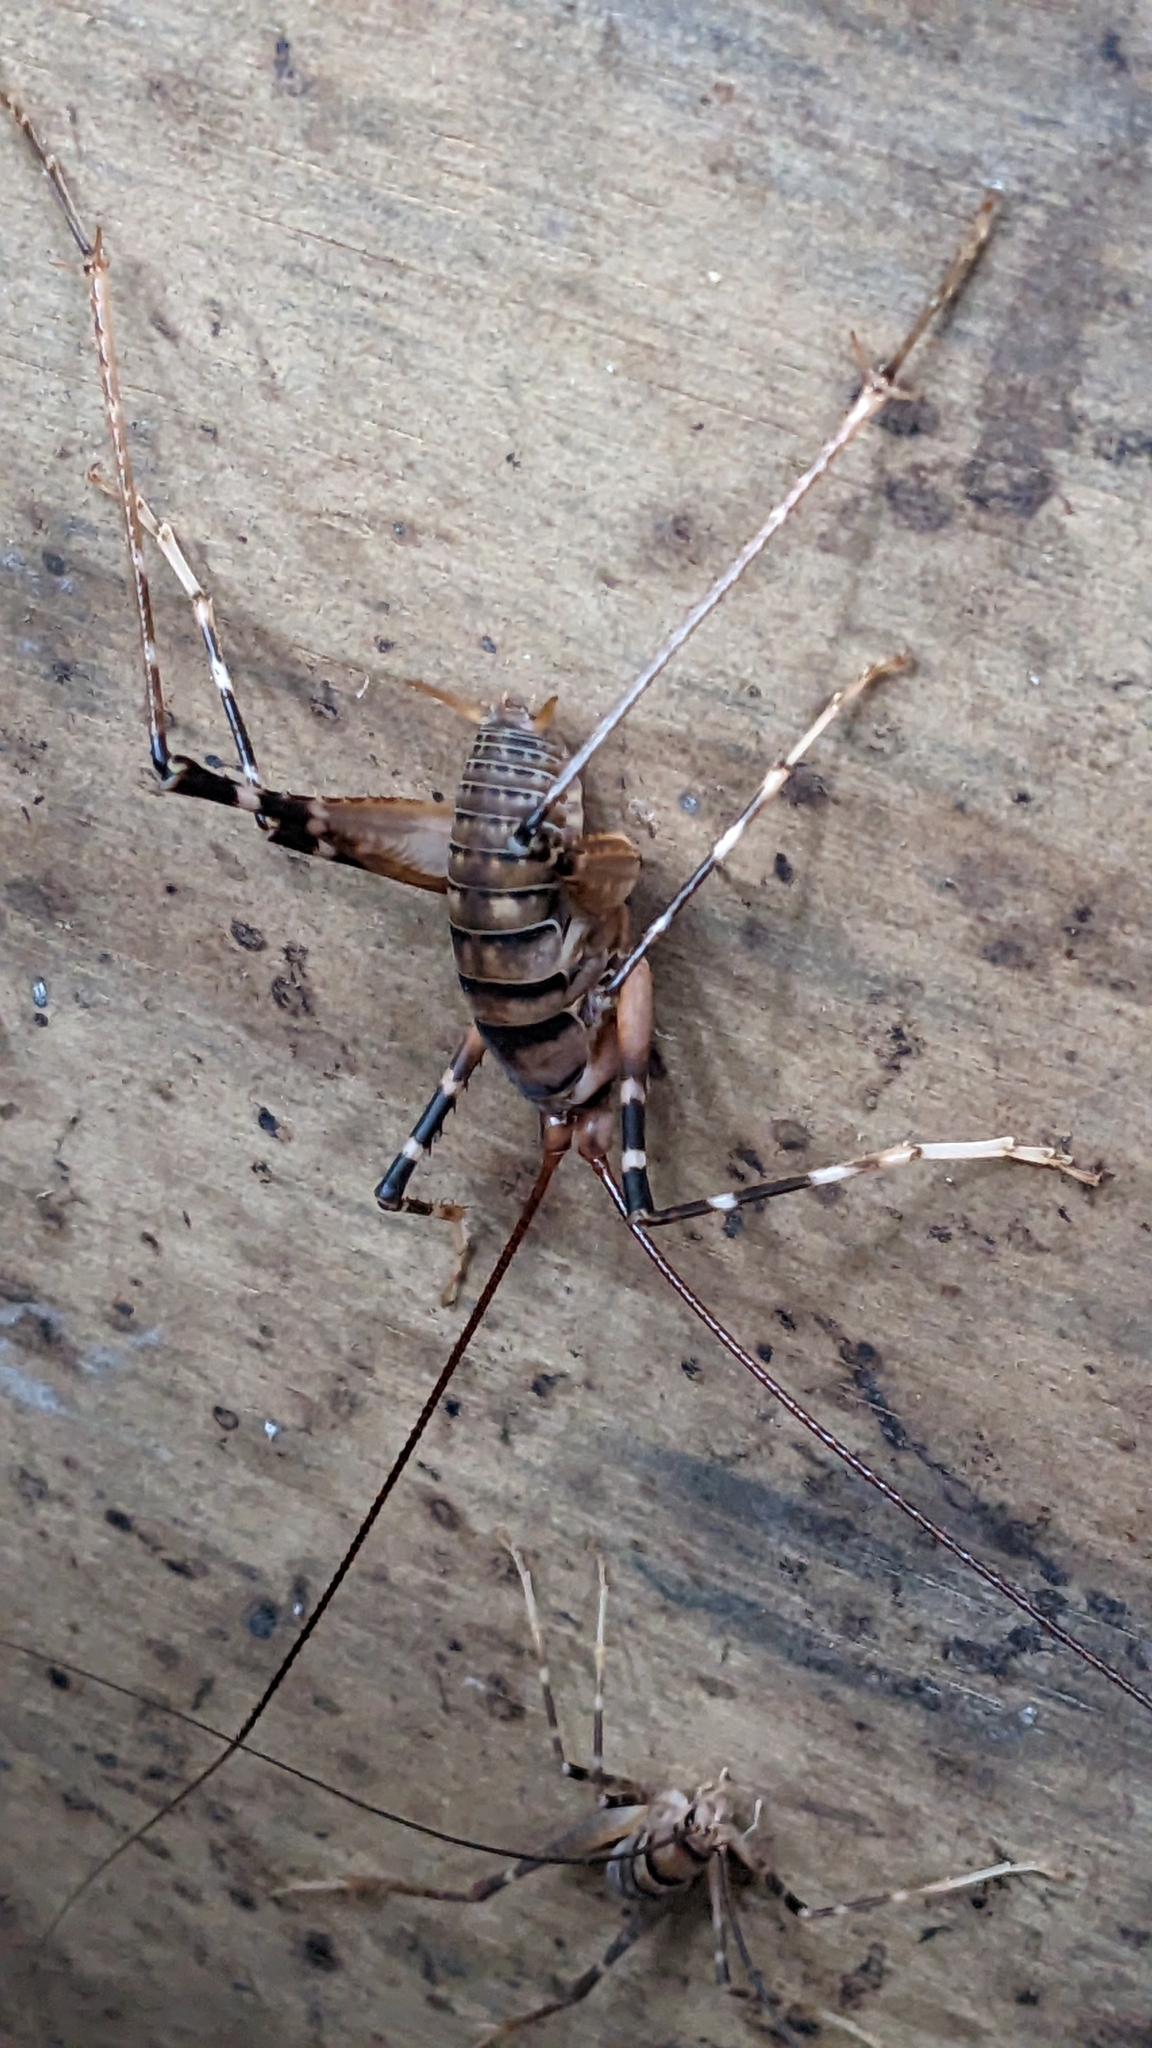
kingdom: Animalia
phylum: Arthropoda
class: Insecta
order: Orthoptera
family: Rhaphidophoridae
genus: Pachyrhamma
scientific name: Pachyrhamma edwardsii
